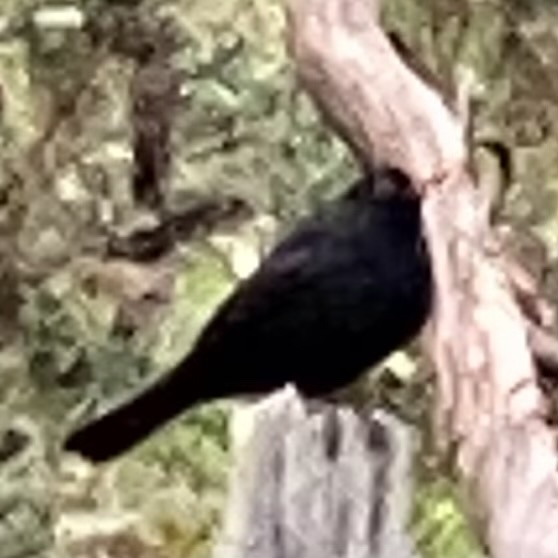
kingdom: Animalia
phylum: Chordata
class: Aves
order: Passeriformes
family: Turdidae
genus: Turdus
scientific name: Turdus merula
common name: Common blackbird
